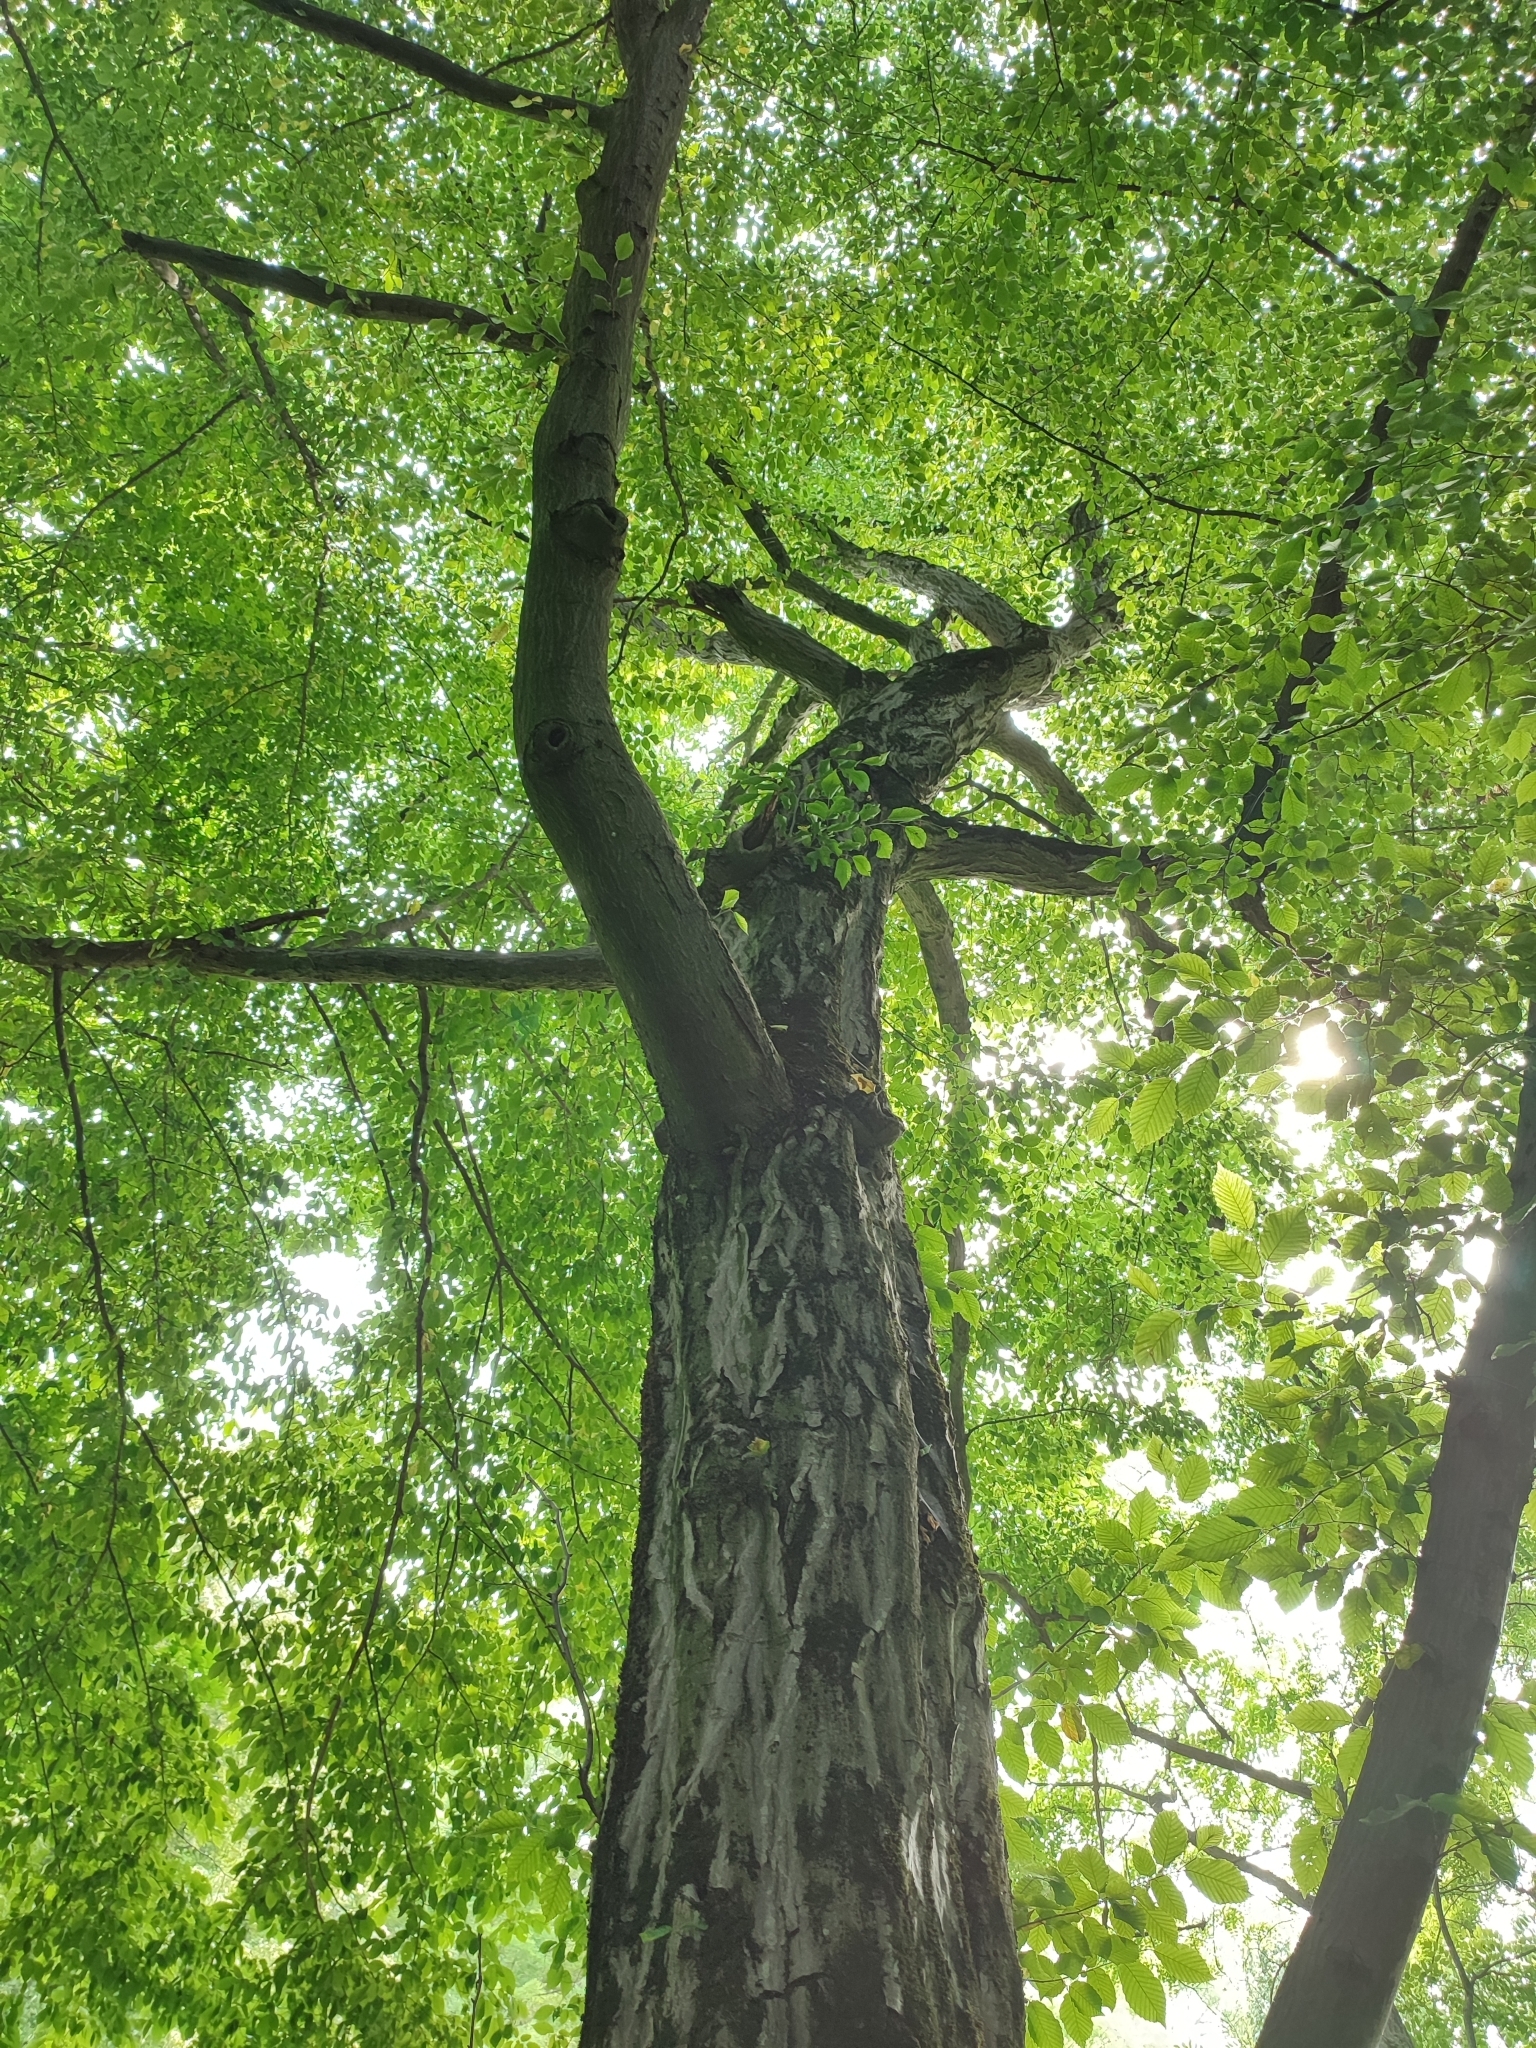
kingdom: Plantae
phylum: Tracheophyta
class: Magnoliopsida
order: Fagales
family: Betulaceae
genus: Carpinus
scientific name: Carpinus betulus
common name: Hornbeam
